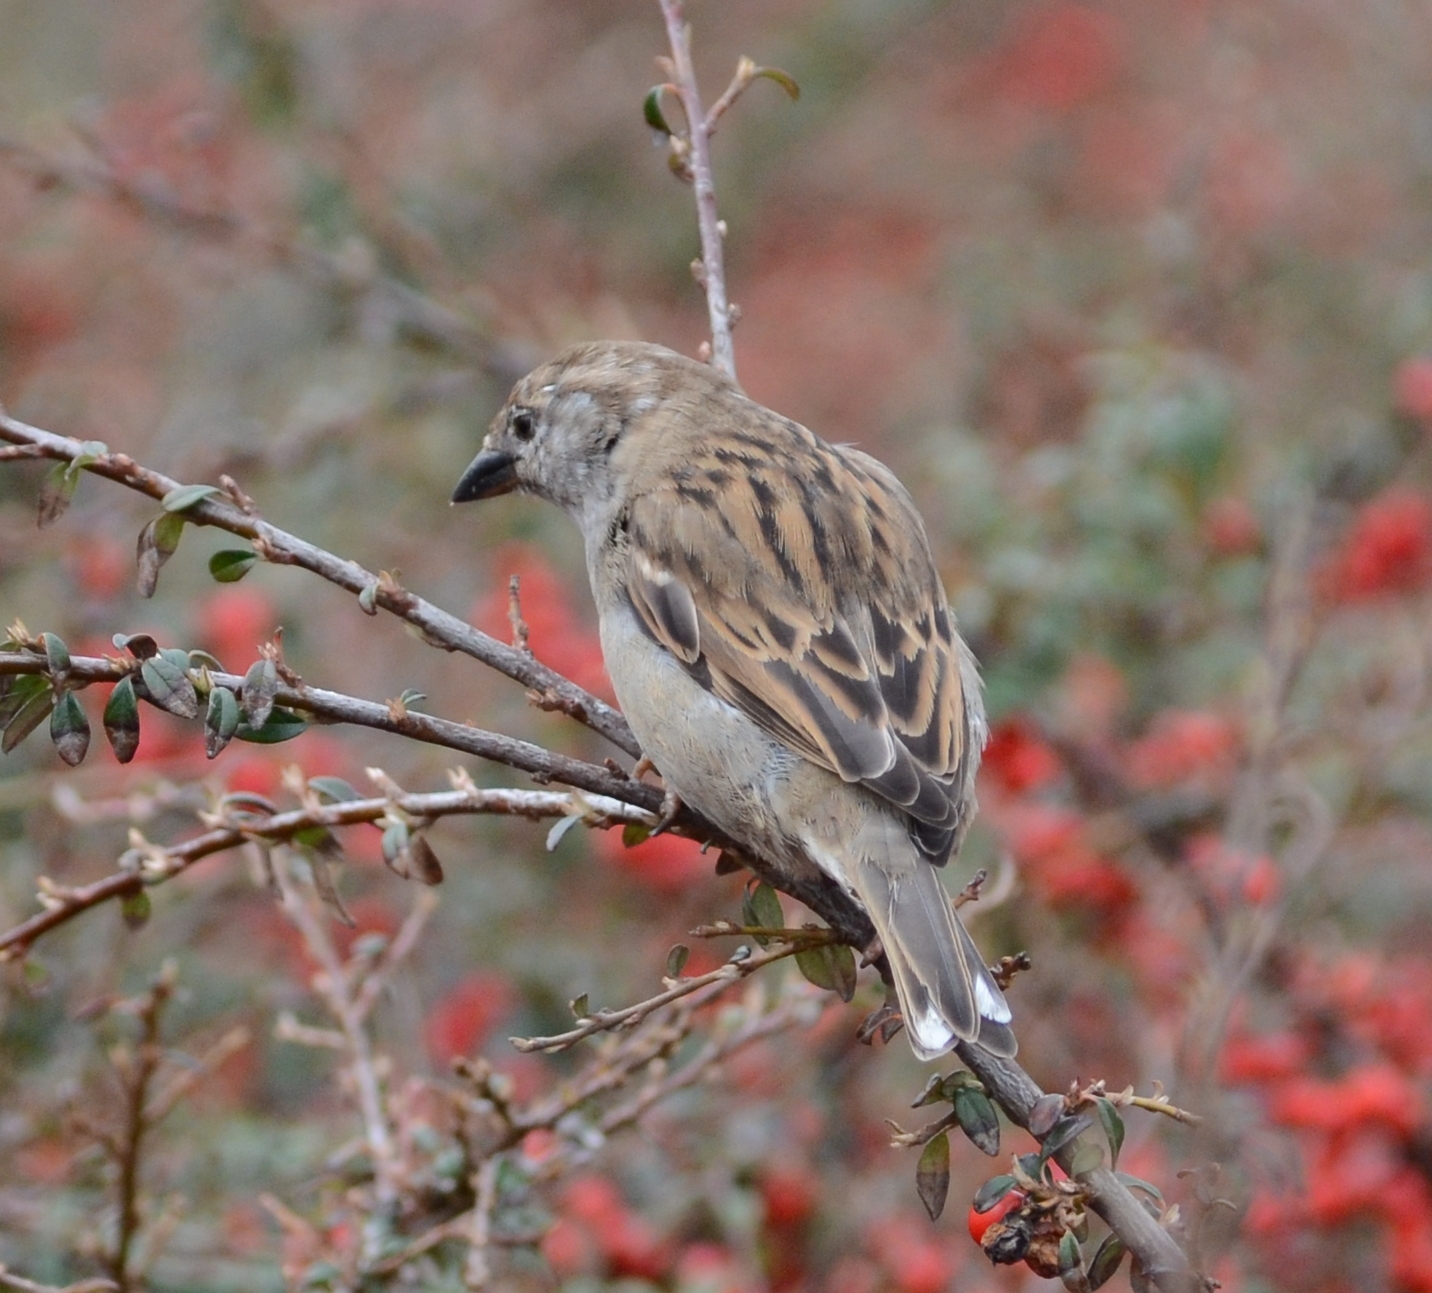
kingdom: Animalia
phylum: Chordata
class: Aves
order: Passeriformes
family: Passeridae
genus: Passer
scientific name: Passer domesticus
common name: House sparrow
